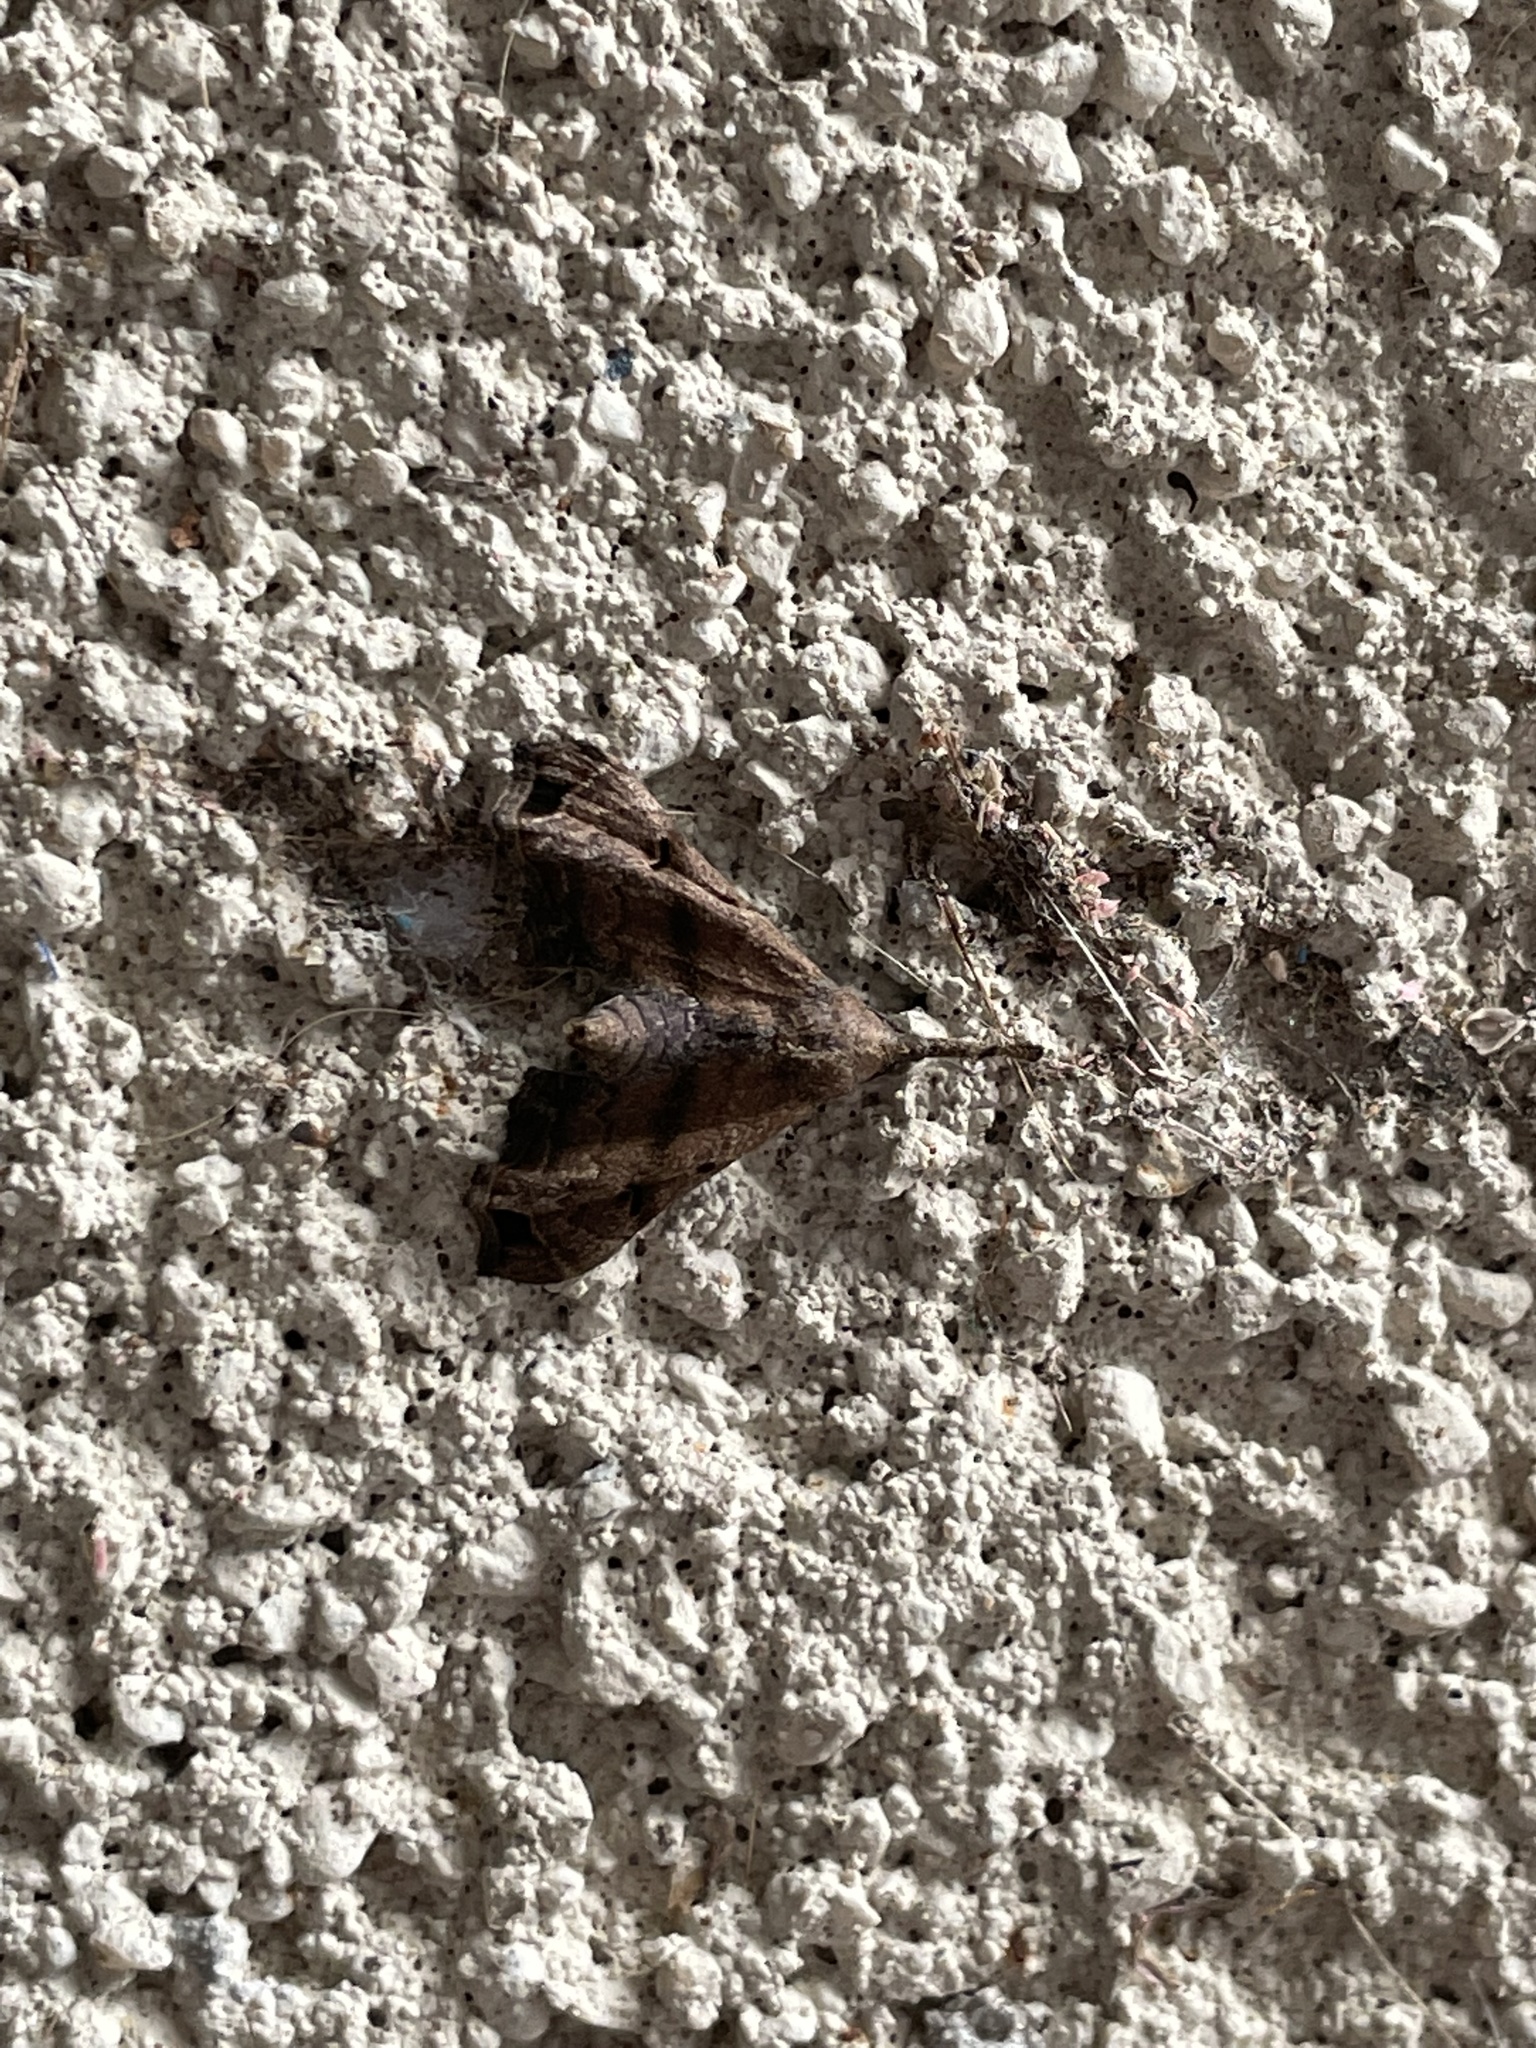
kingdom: Animalia
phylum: Arthropoda
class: Insecta
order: Lepidoptera
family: Erebidae
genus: Palthis
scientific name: Palthis asopialis
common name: Faint-spotted palthis moth
